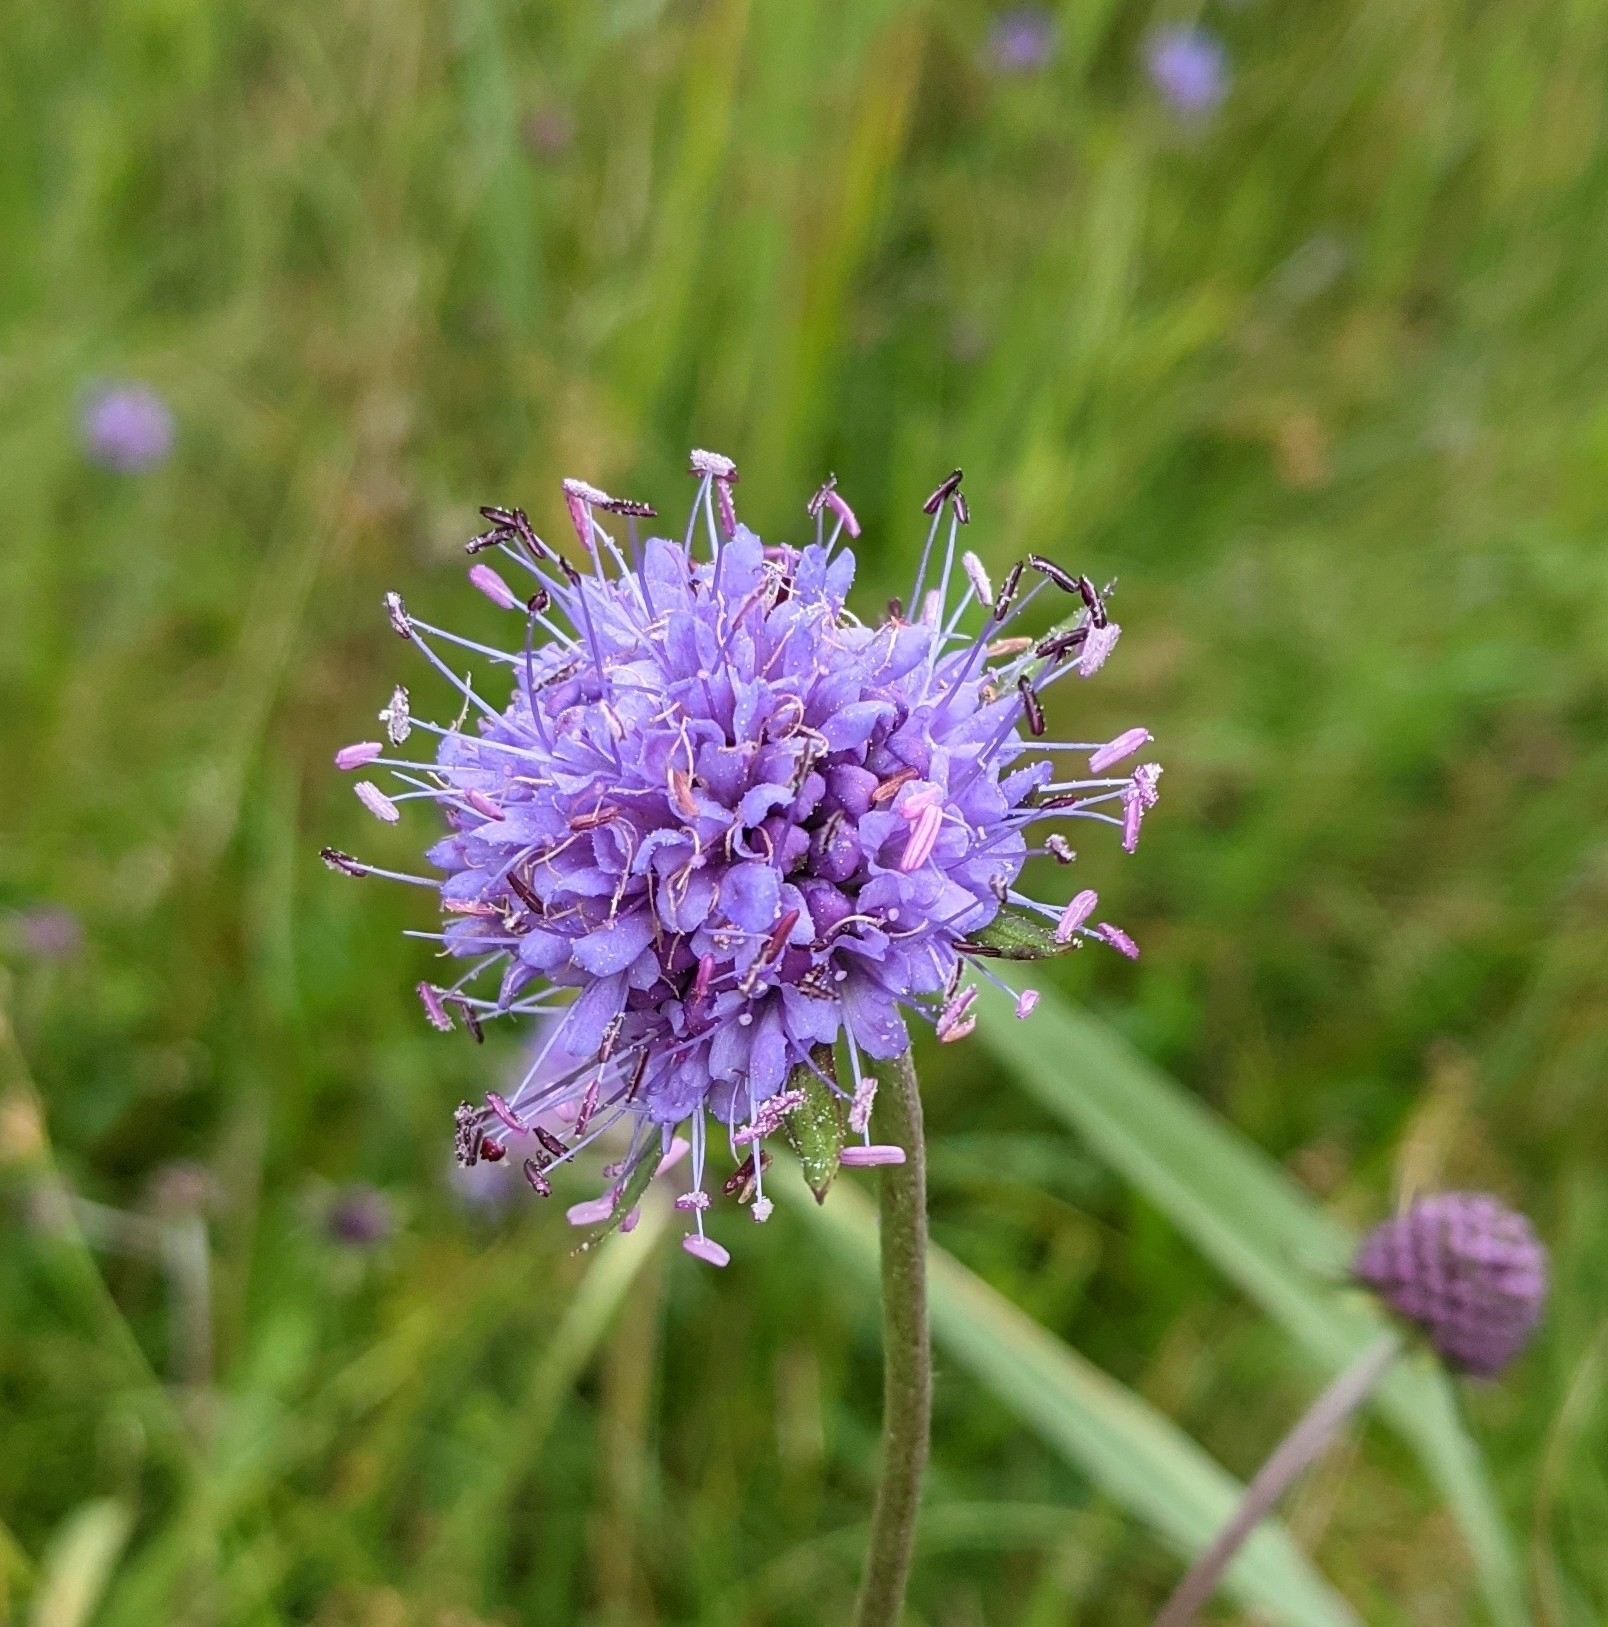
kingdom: Plantae
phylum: Tracheophyta
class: Magnoliopsida
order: Dipsacales
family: Caprifoliaceae
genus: Succisa
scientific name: Succisa pratensis
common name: Devil's-bit
